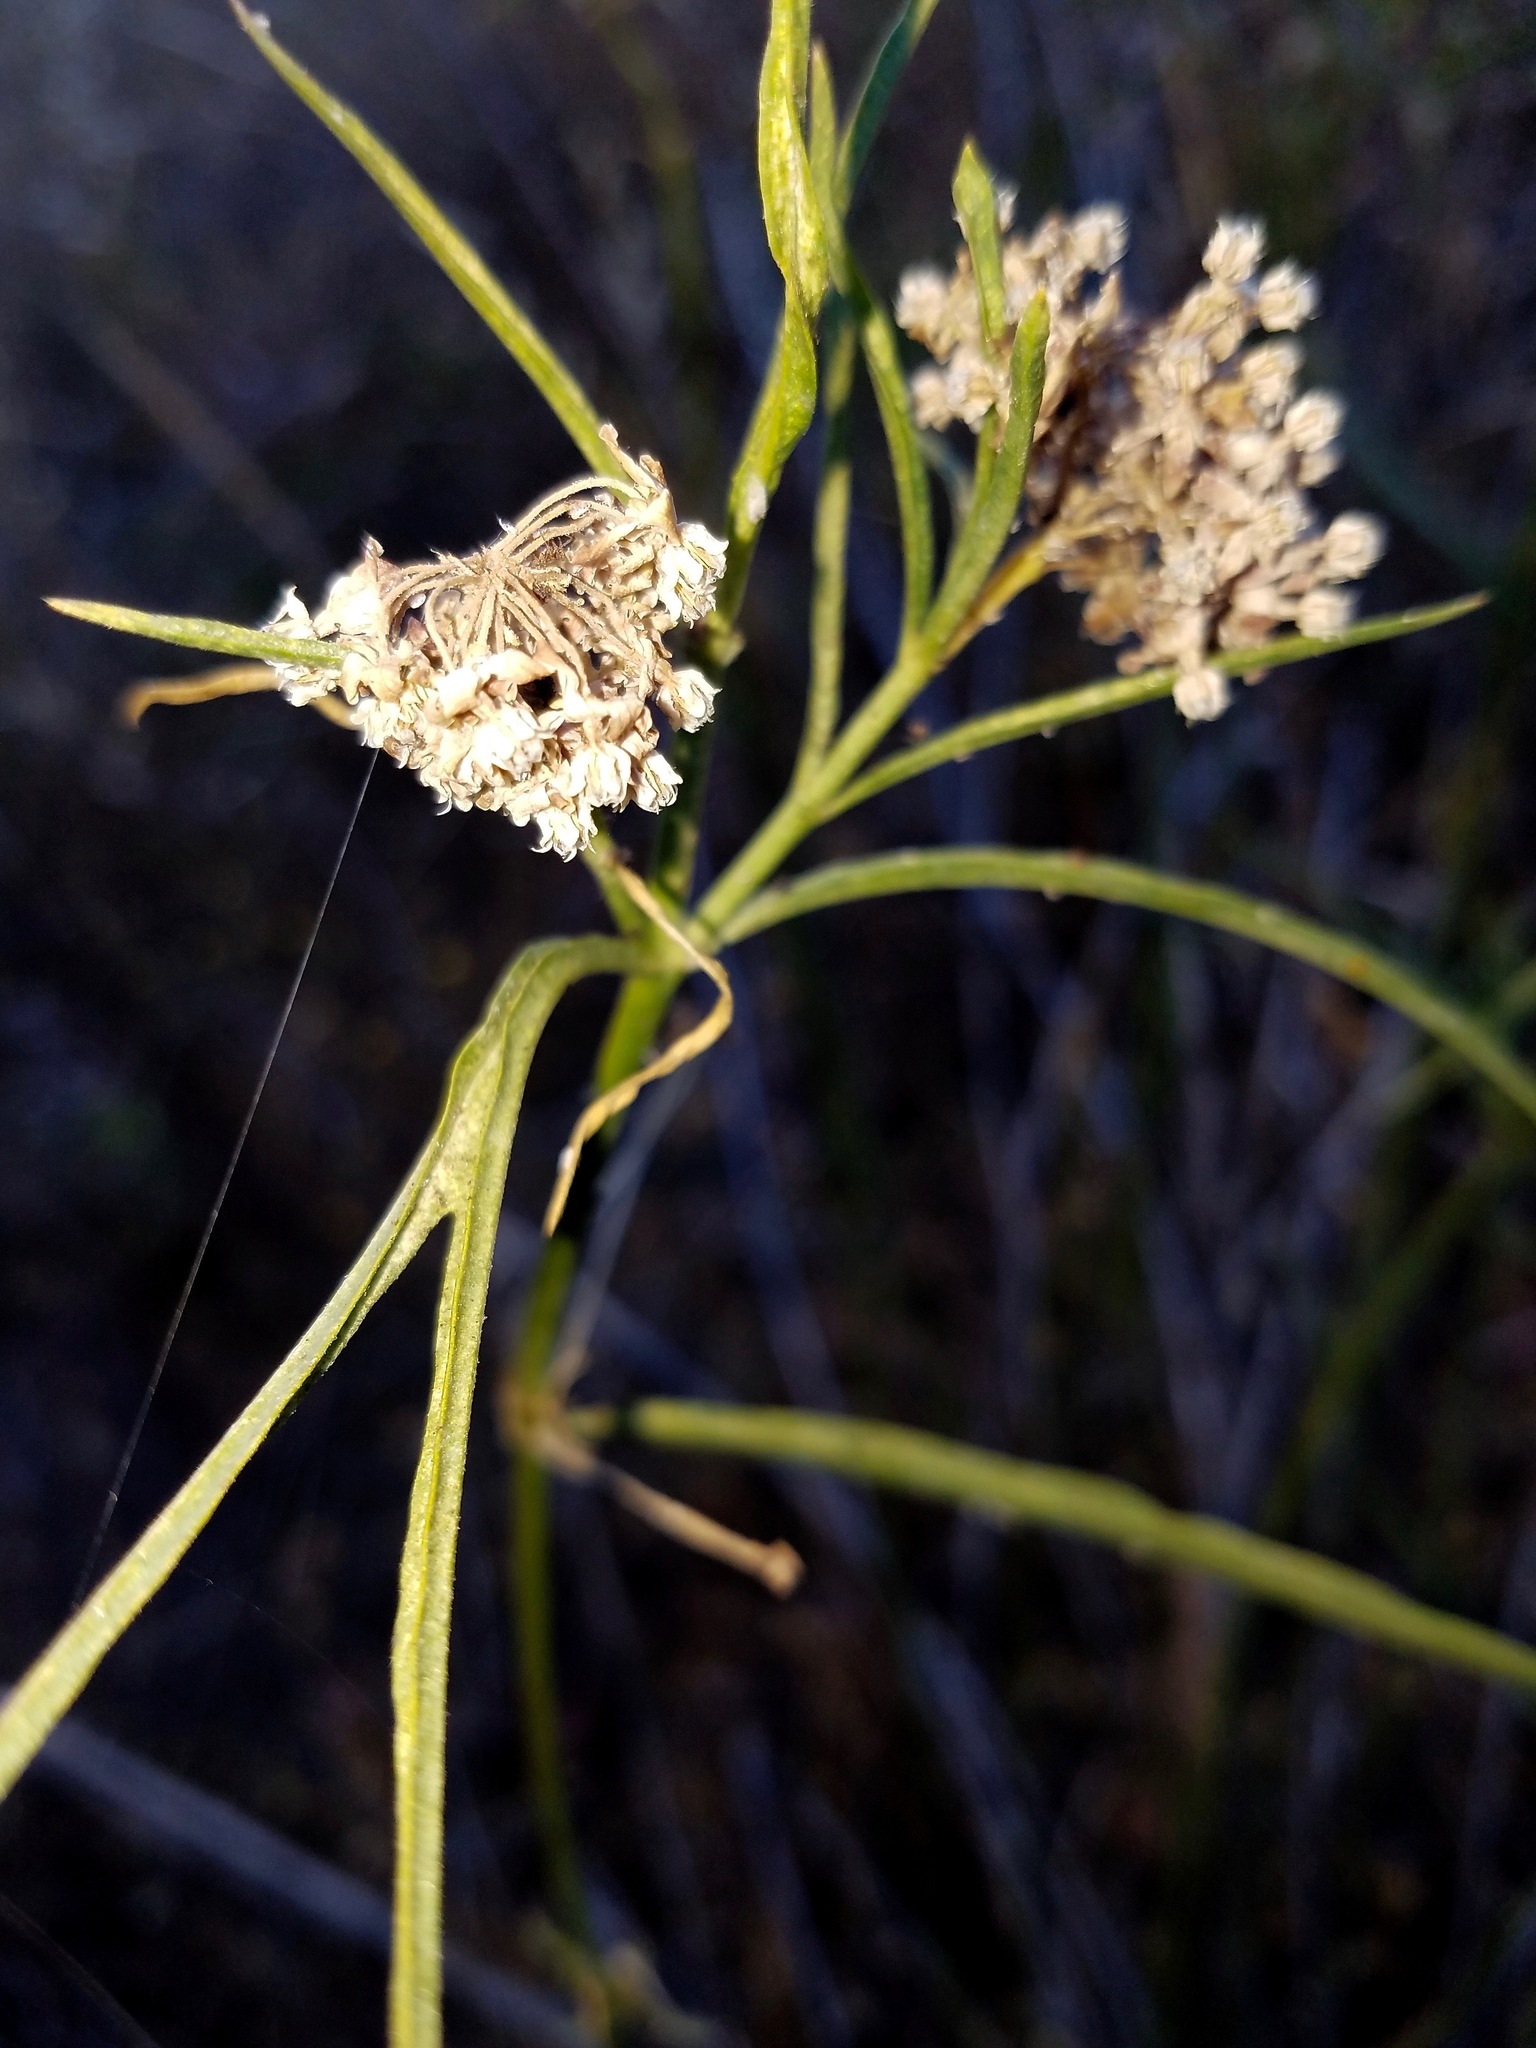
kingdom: Plantae
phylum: Tracheophyta
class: Magnoliopsida
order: Gentianales
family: Apocynaceae
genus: Asclepias
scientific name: Asclepias fascicularis
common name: Mexican milkweed
